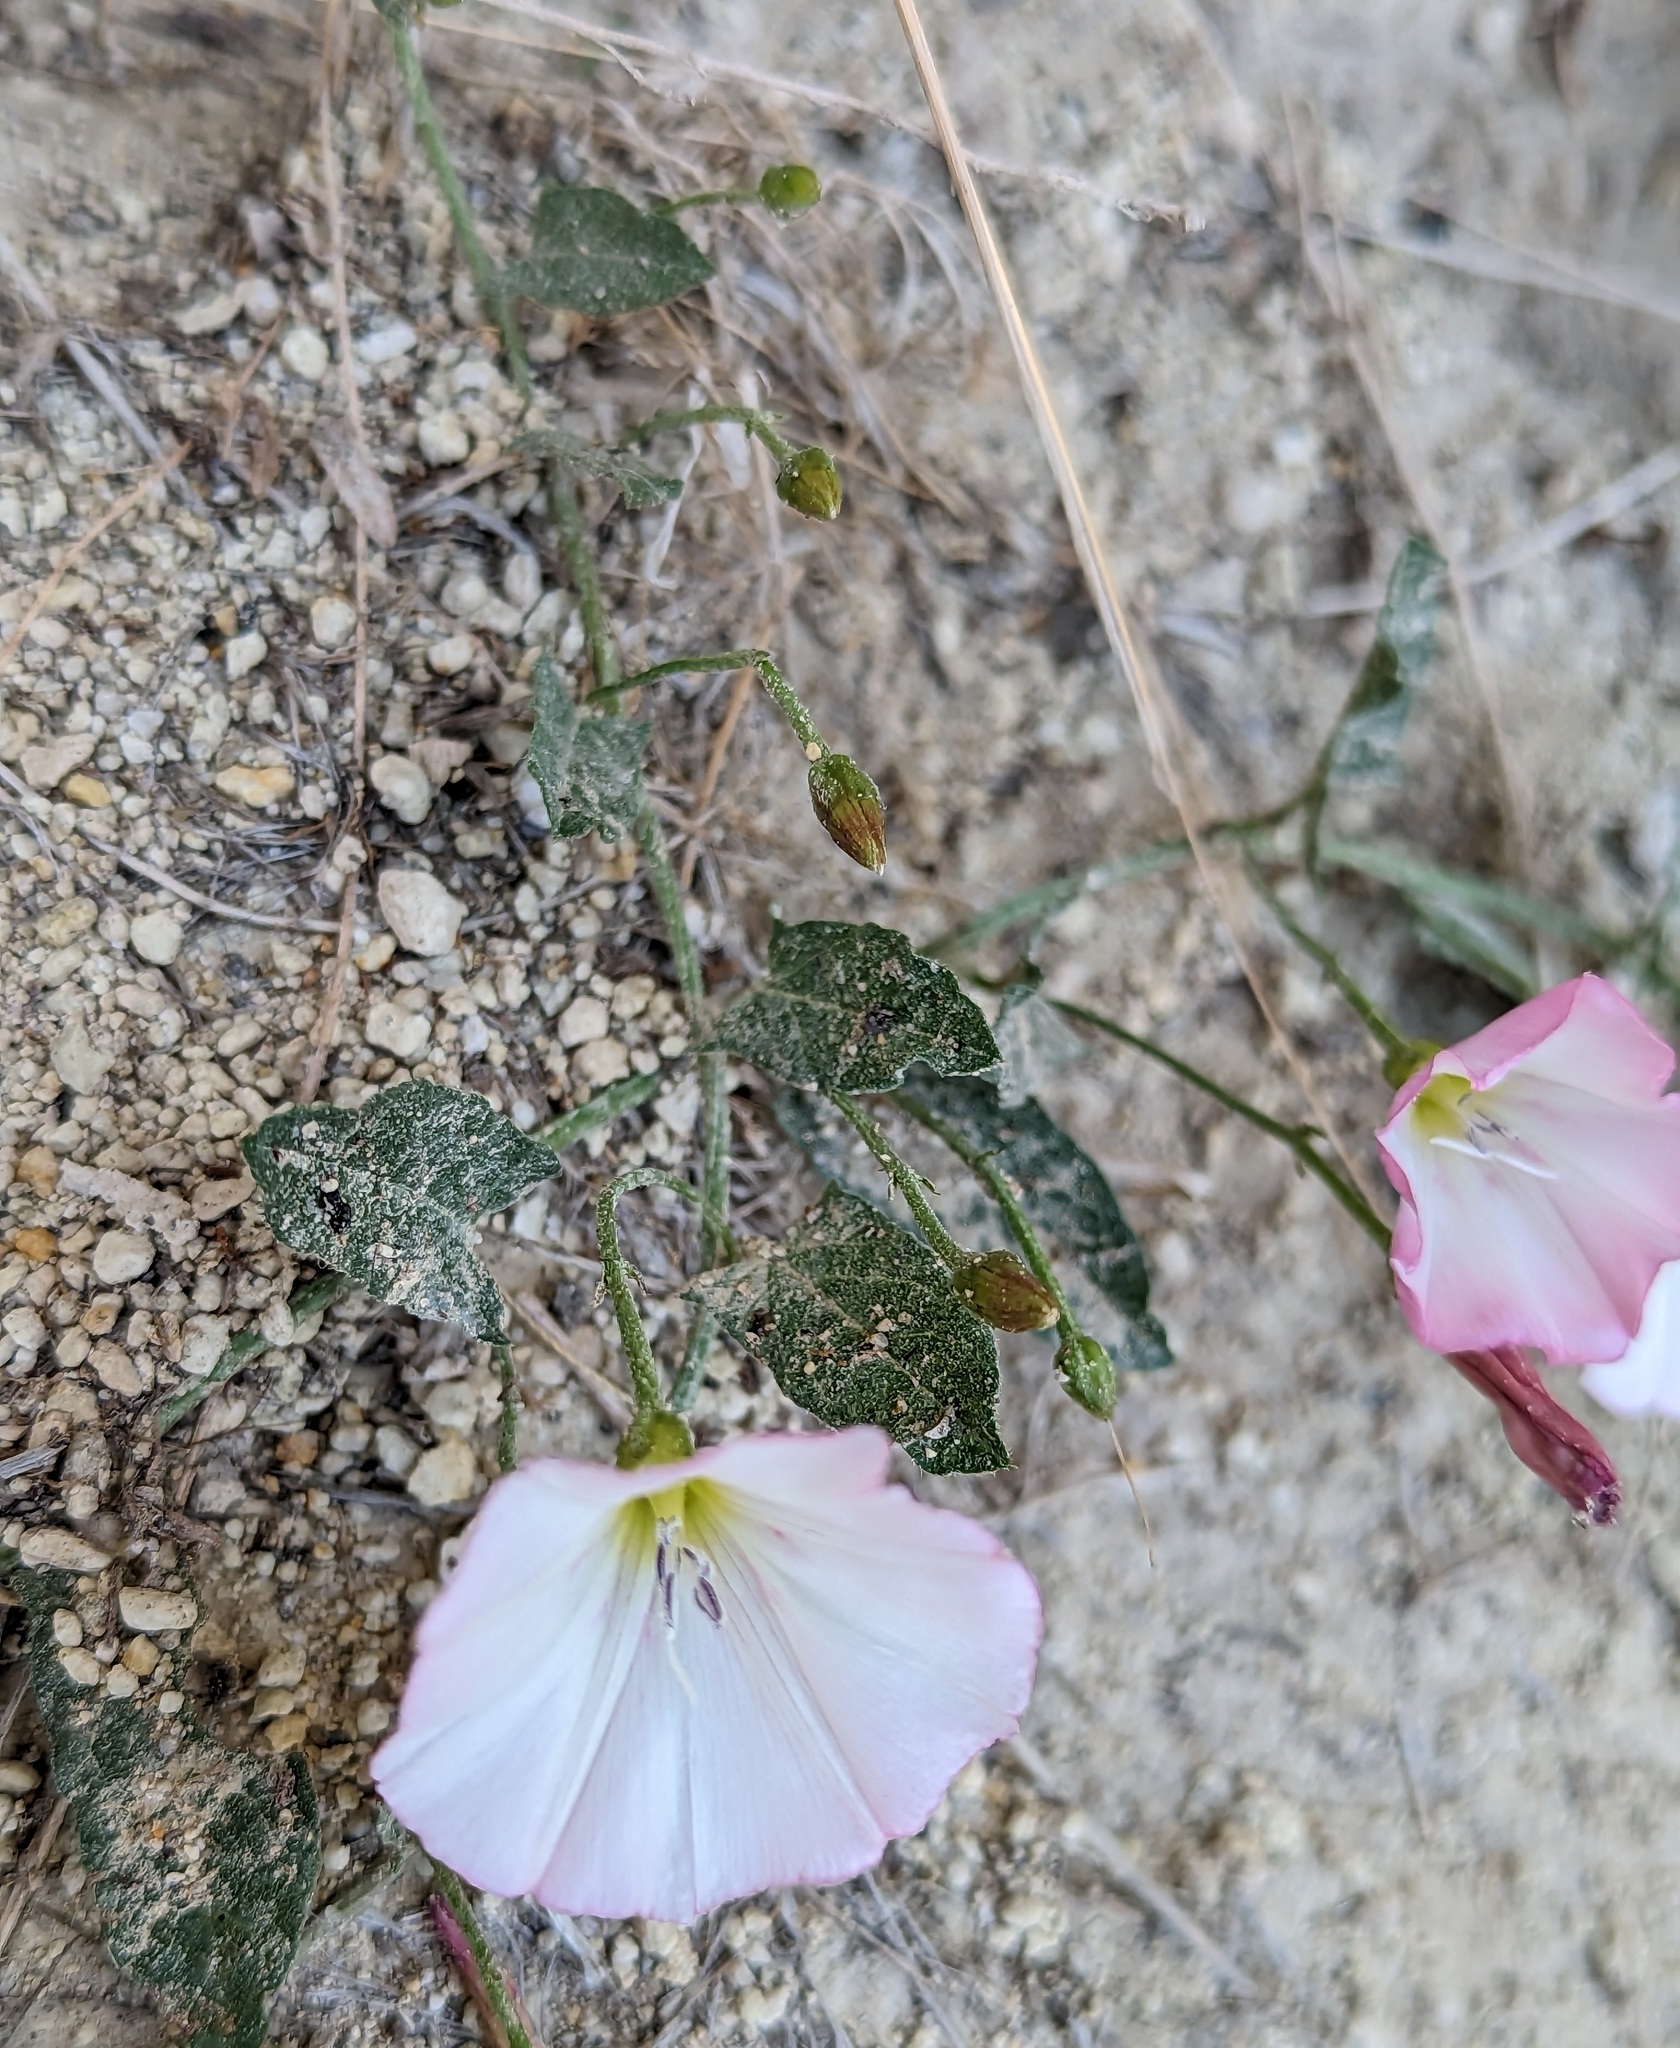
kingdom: Plantae
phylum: Tracheophyta
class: Magnoliopsida
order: Solanales
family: Convolvulaceae
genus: Convolvulus
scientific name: Convolvulus arvensis
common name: Field bindweed
